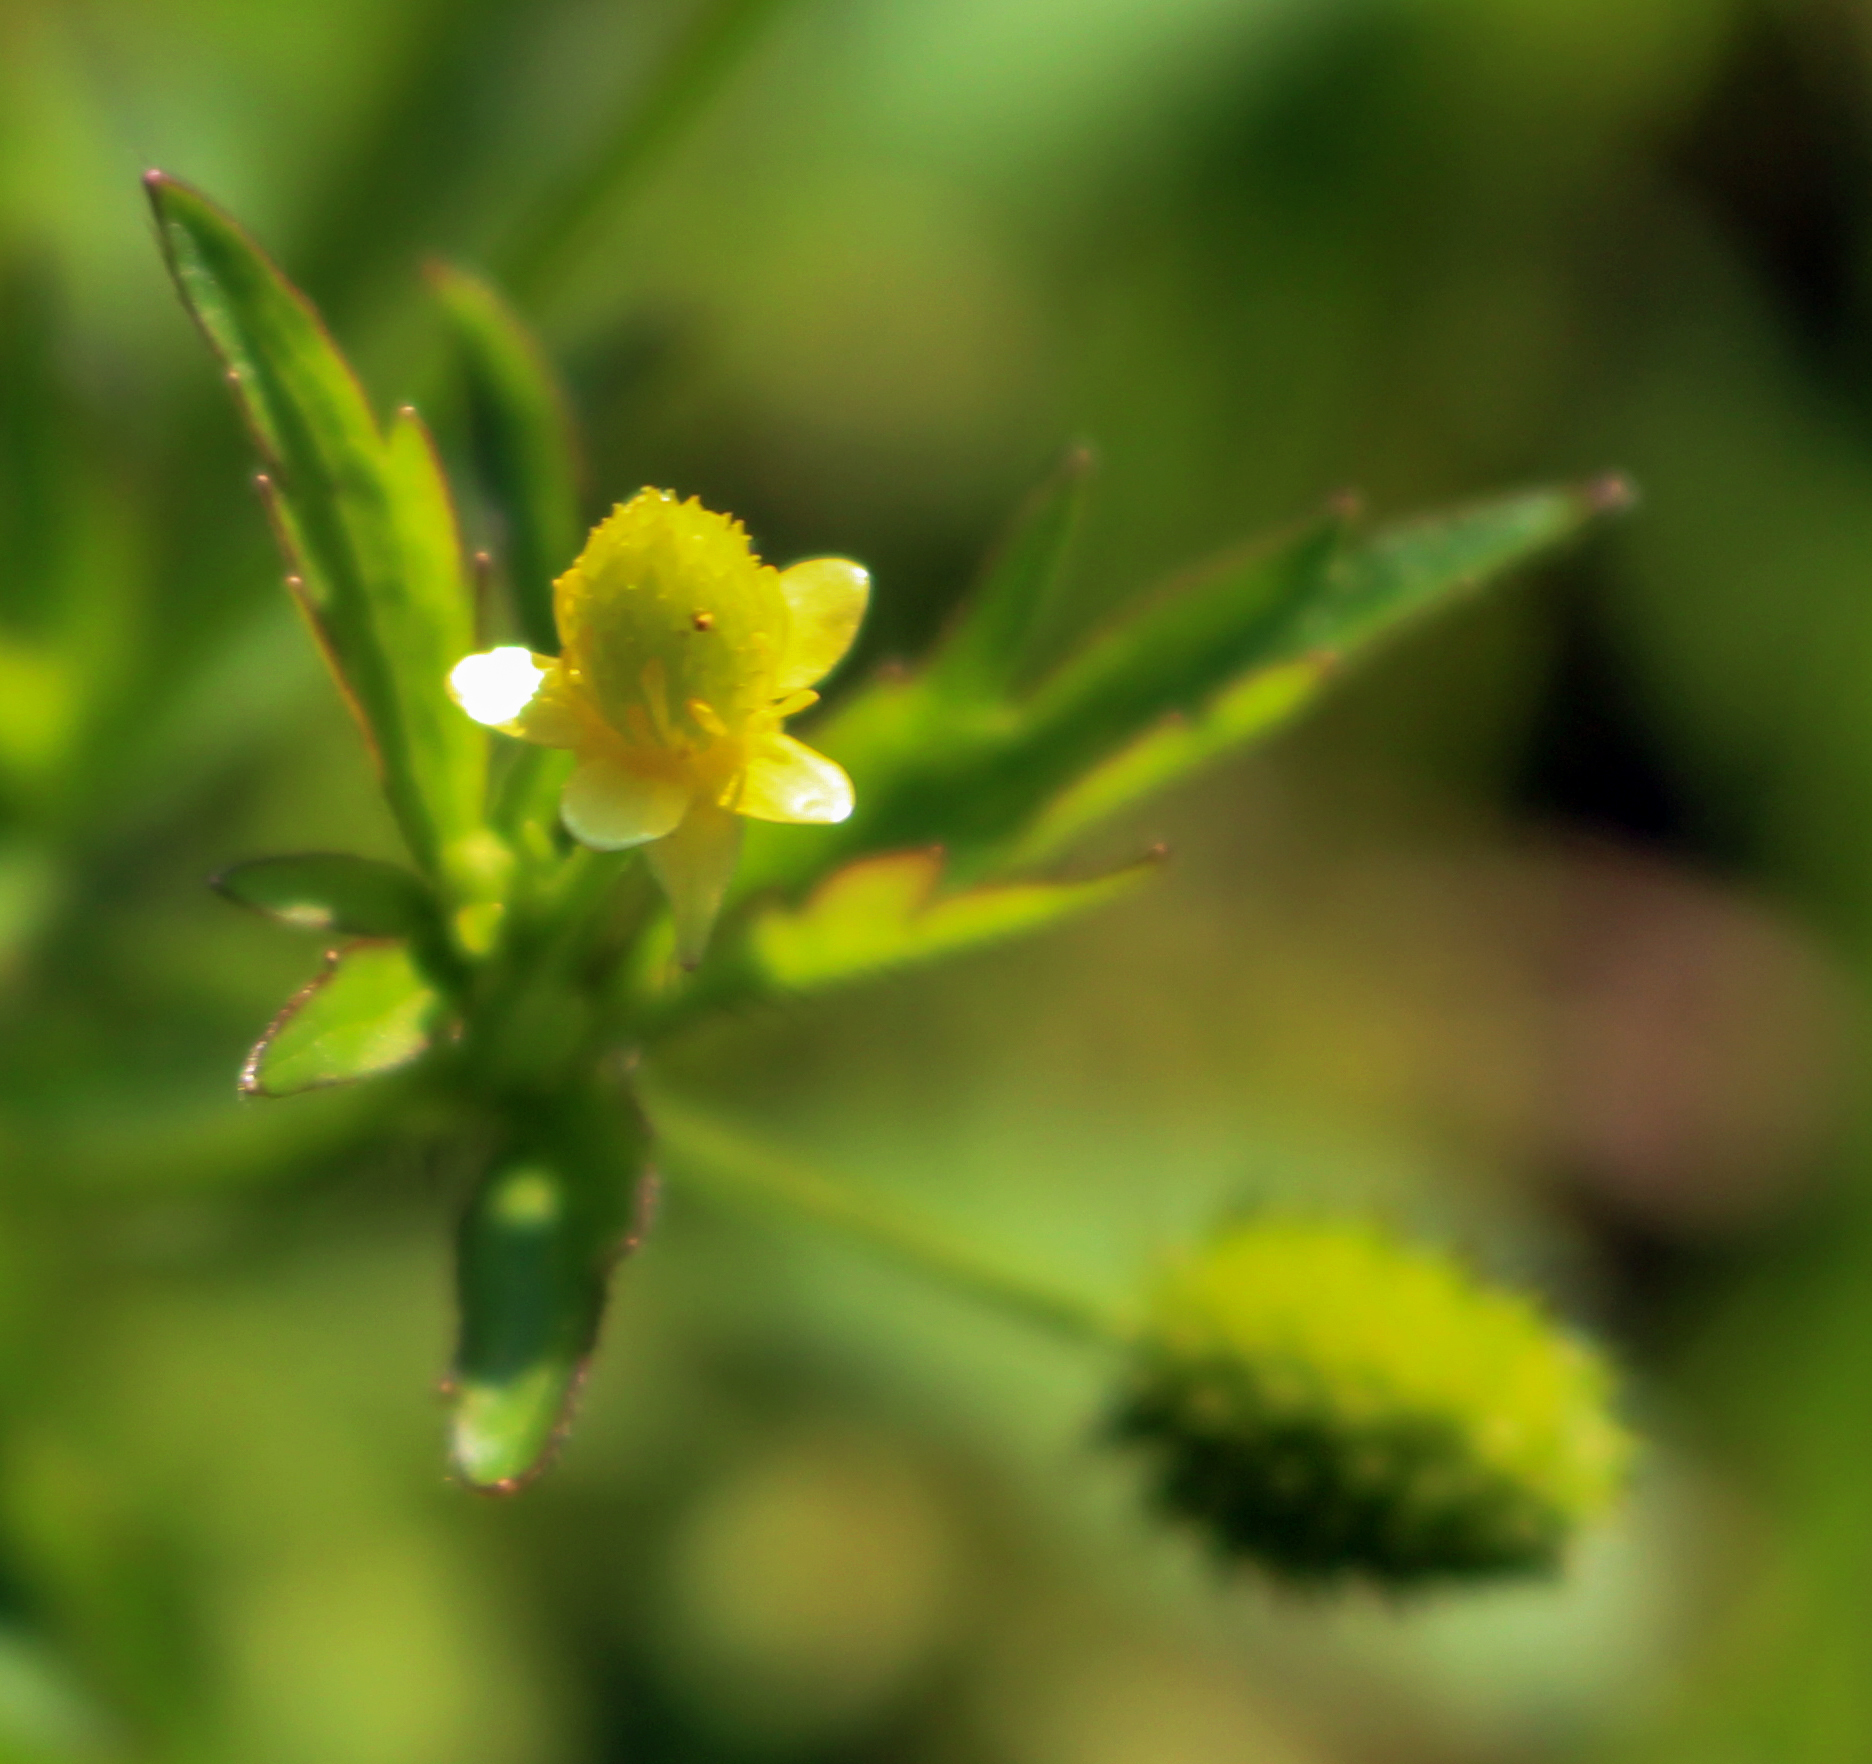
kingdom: Plantae
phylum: Tracheophyta
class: Magnoliopsida
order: Ranunculales
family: Ranunculaceae
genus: Ranunculus
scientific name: Ranunculus pensylvanicus
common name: Bristly buttercup
